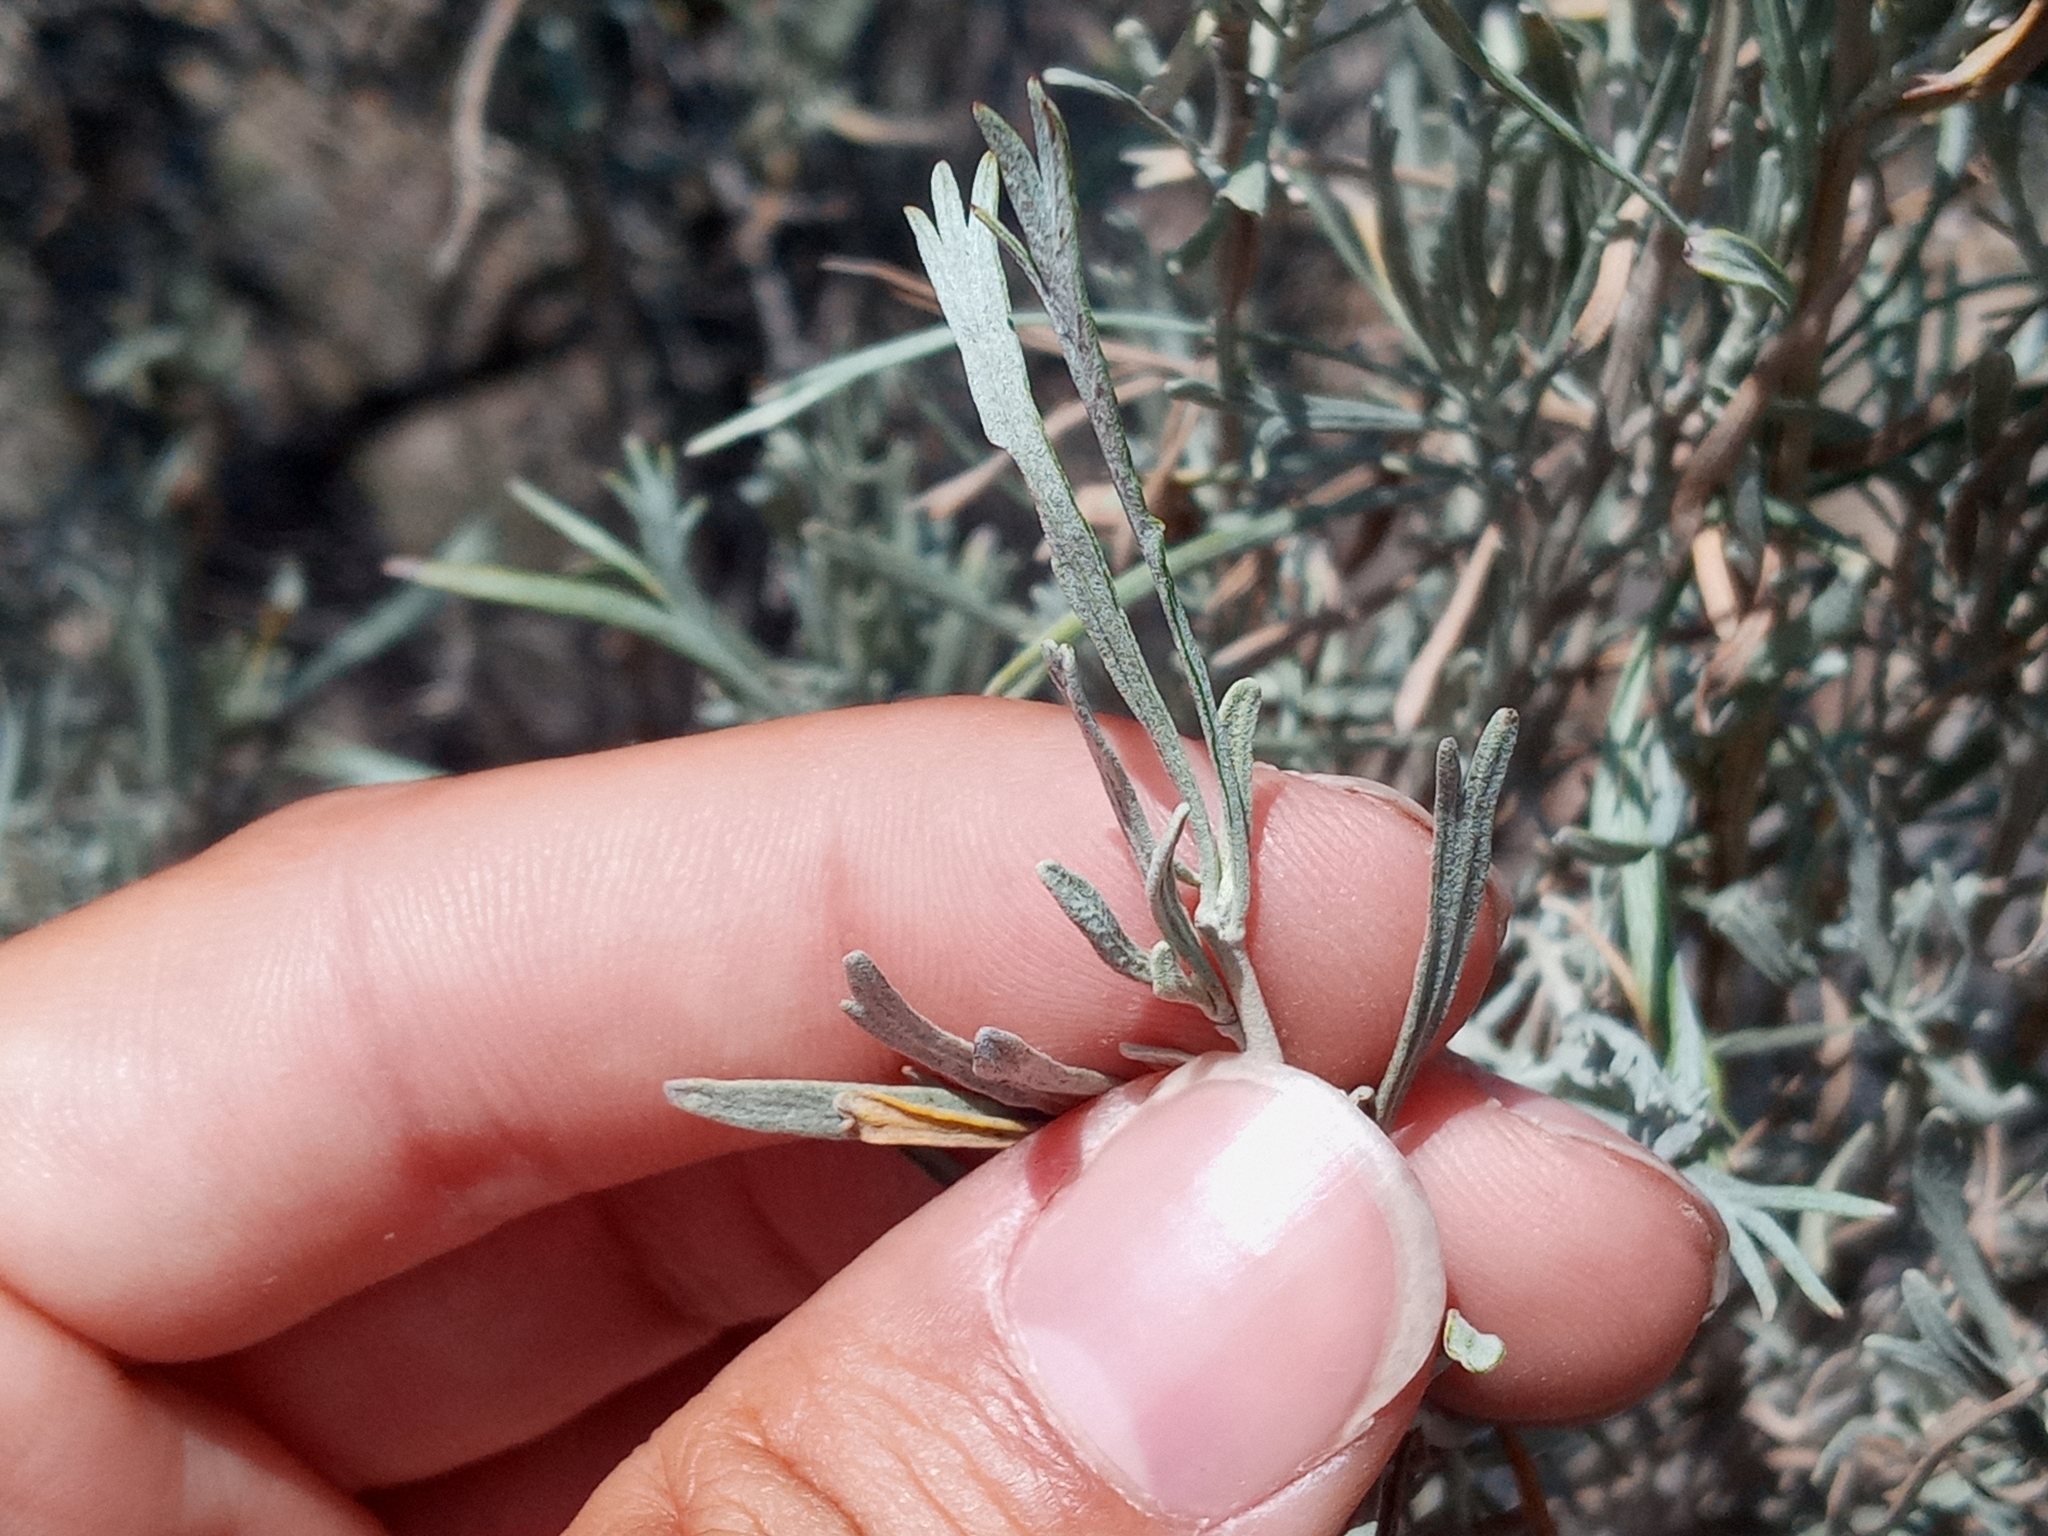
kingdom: Plantae
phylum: Tracheophyta
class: Magnoliopsida
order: Asterales
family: Asteraceae
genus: Artemisia
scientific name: Artemisia tridentata
